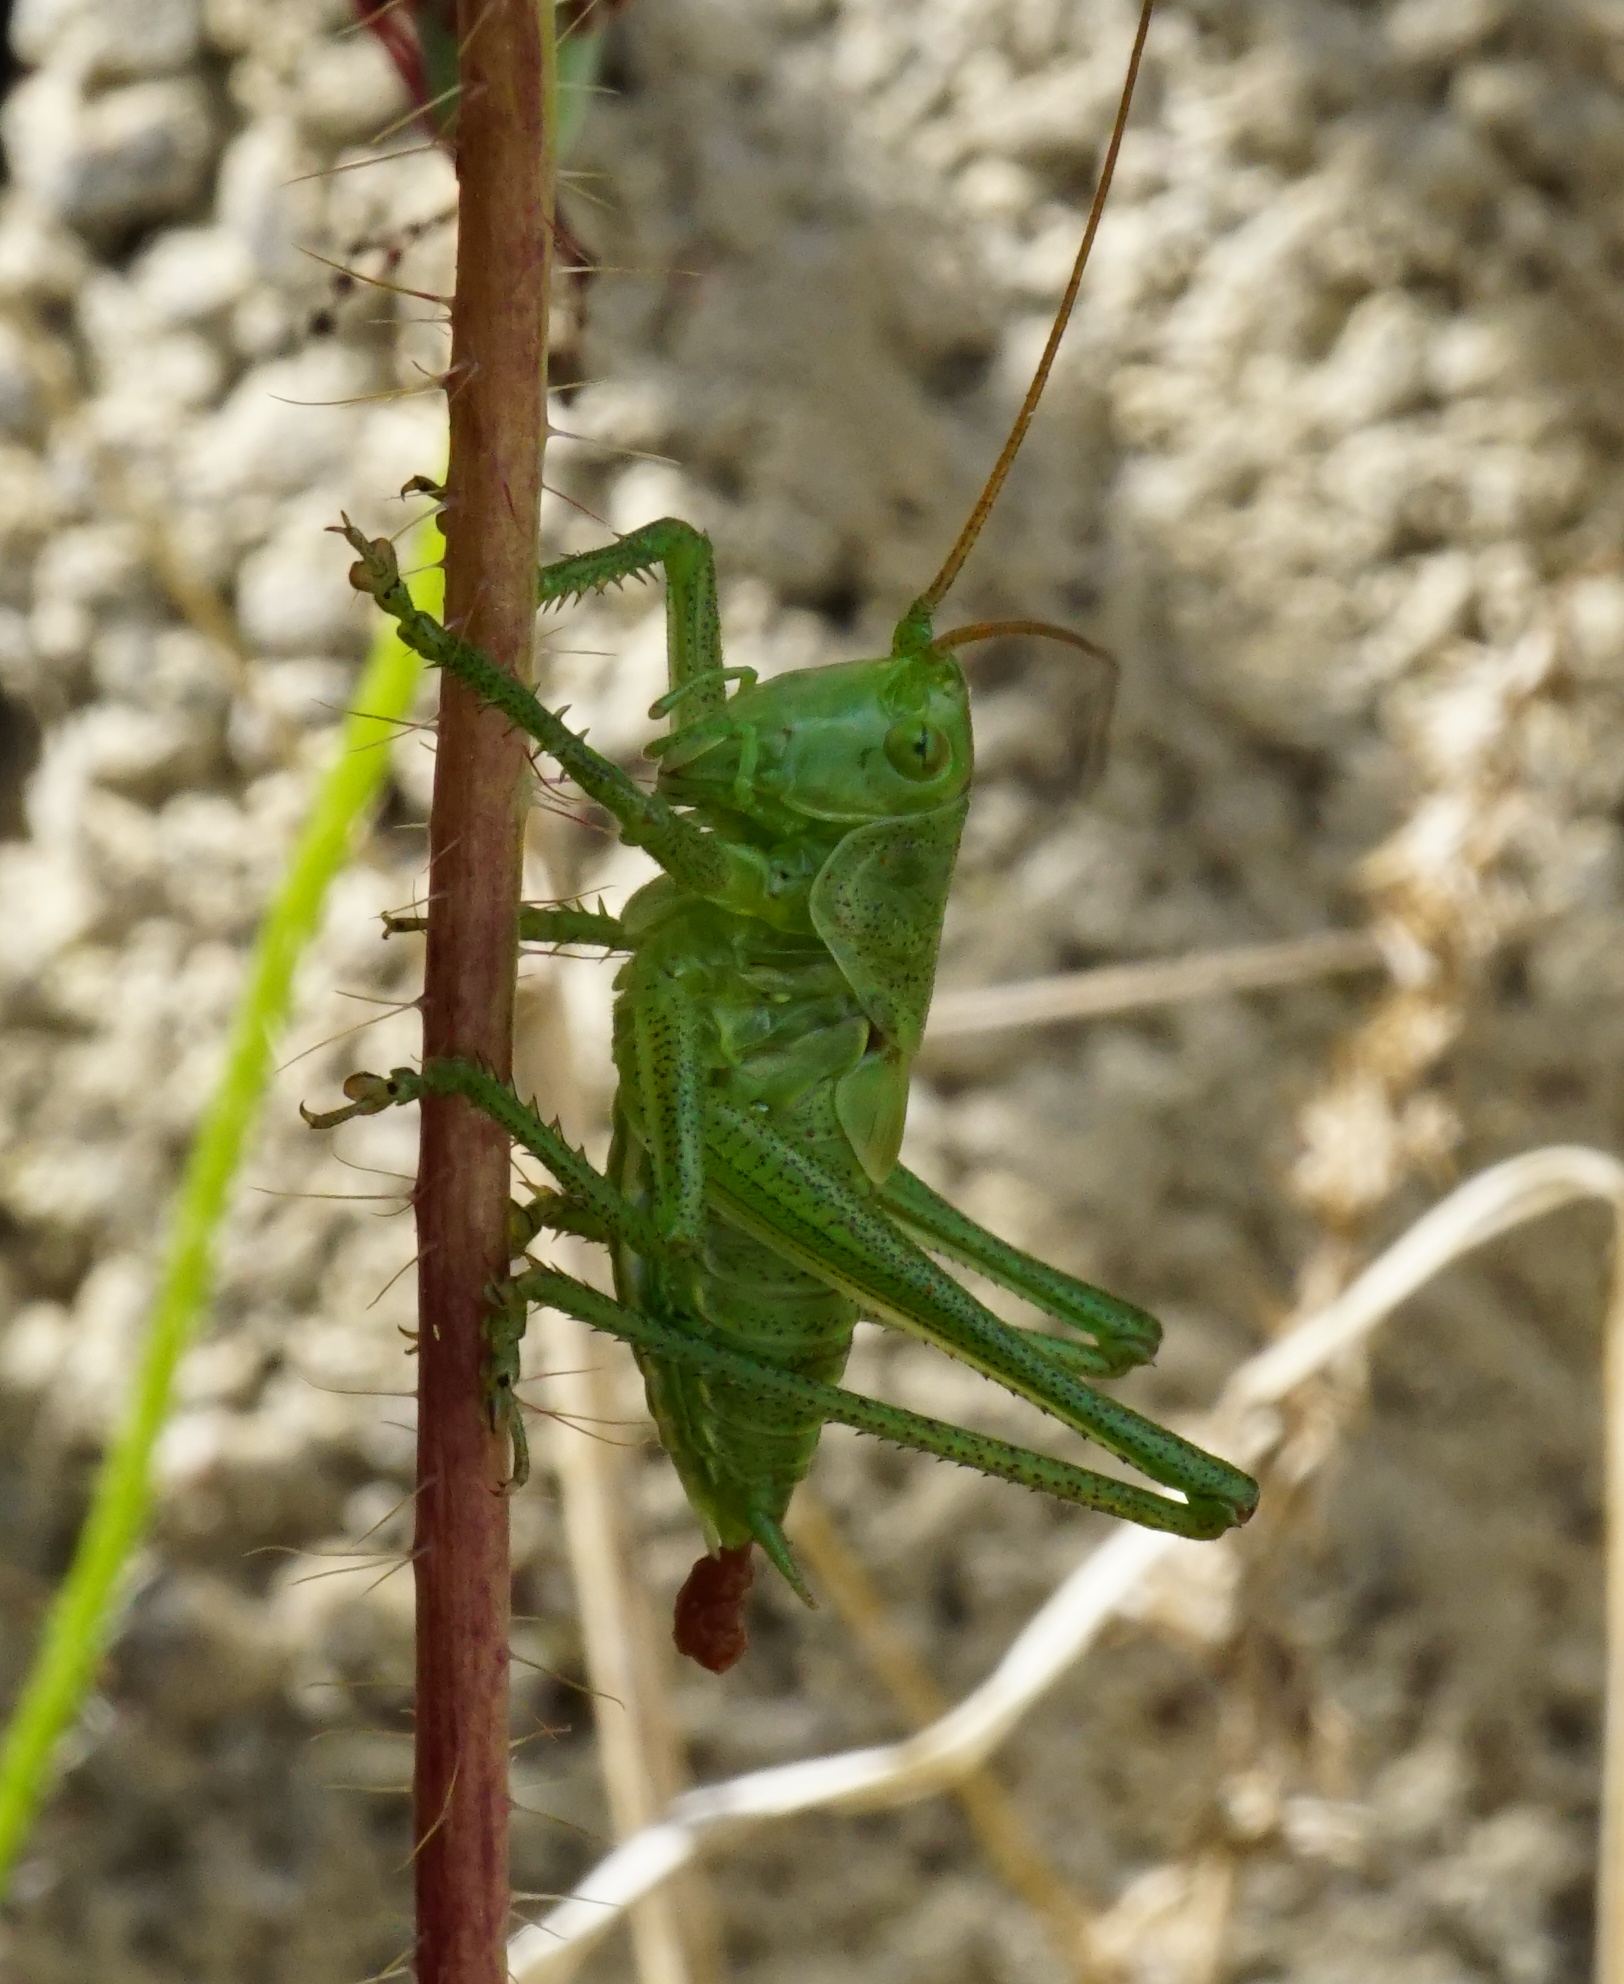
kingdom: Animalia
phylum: Arthropoda
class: Insecta
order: Orthoptera
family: Tettigoniidae
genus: Tettigonia
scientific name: Tettigonia
